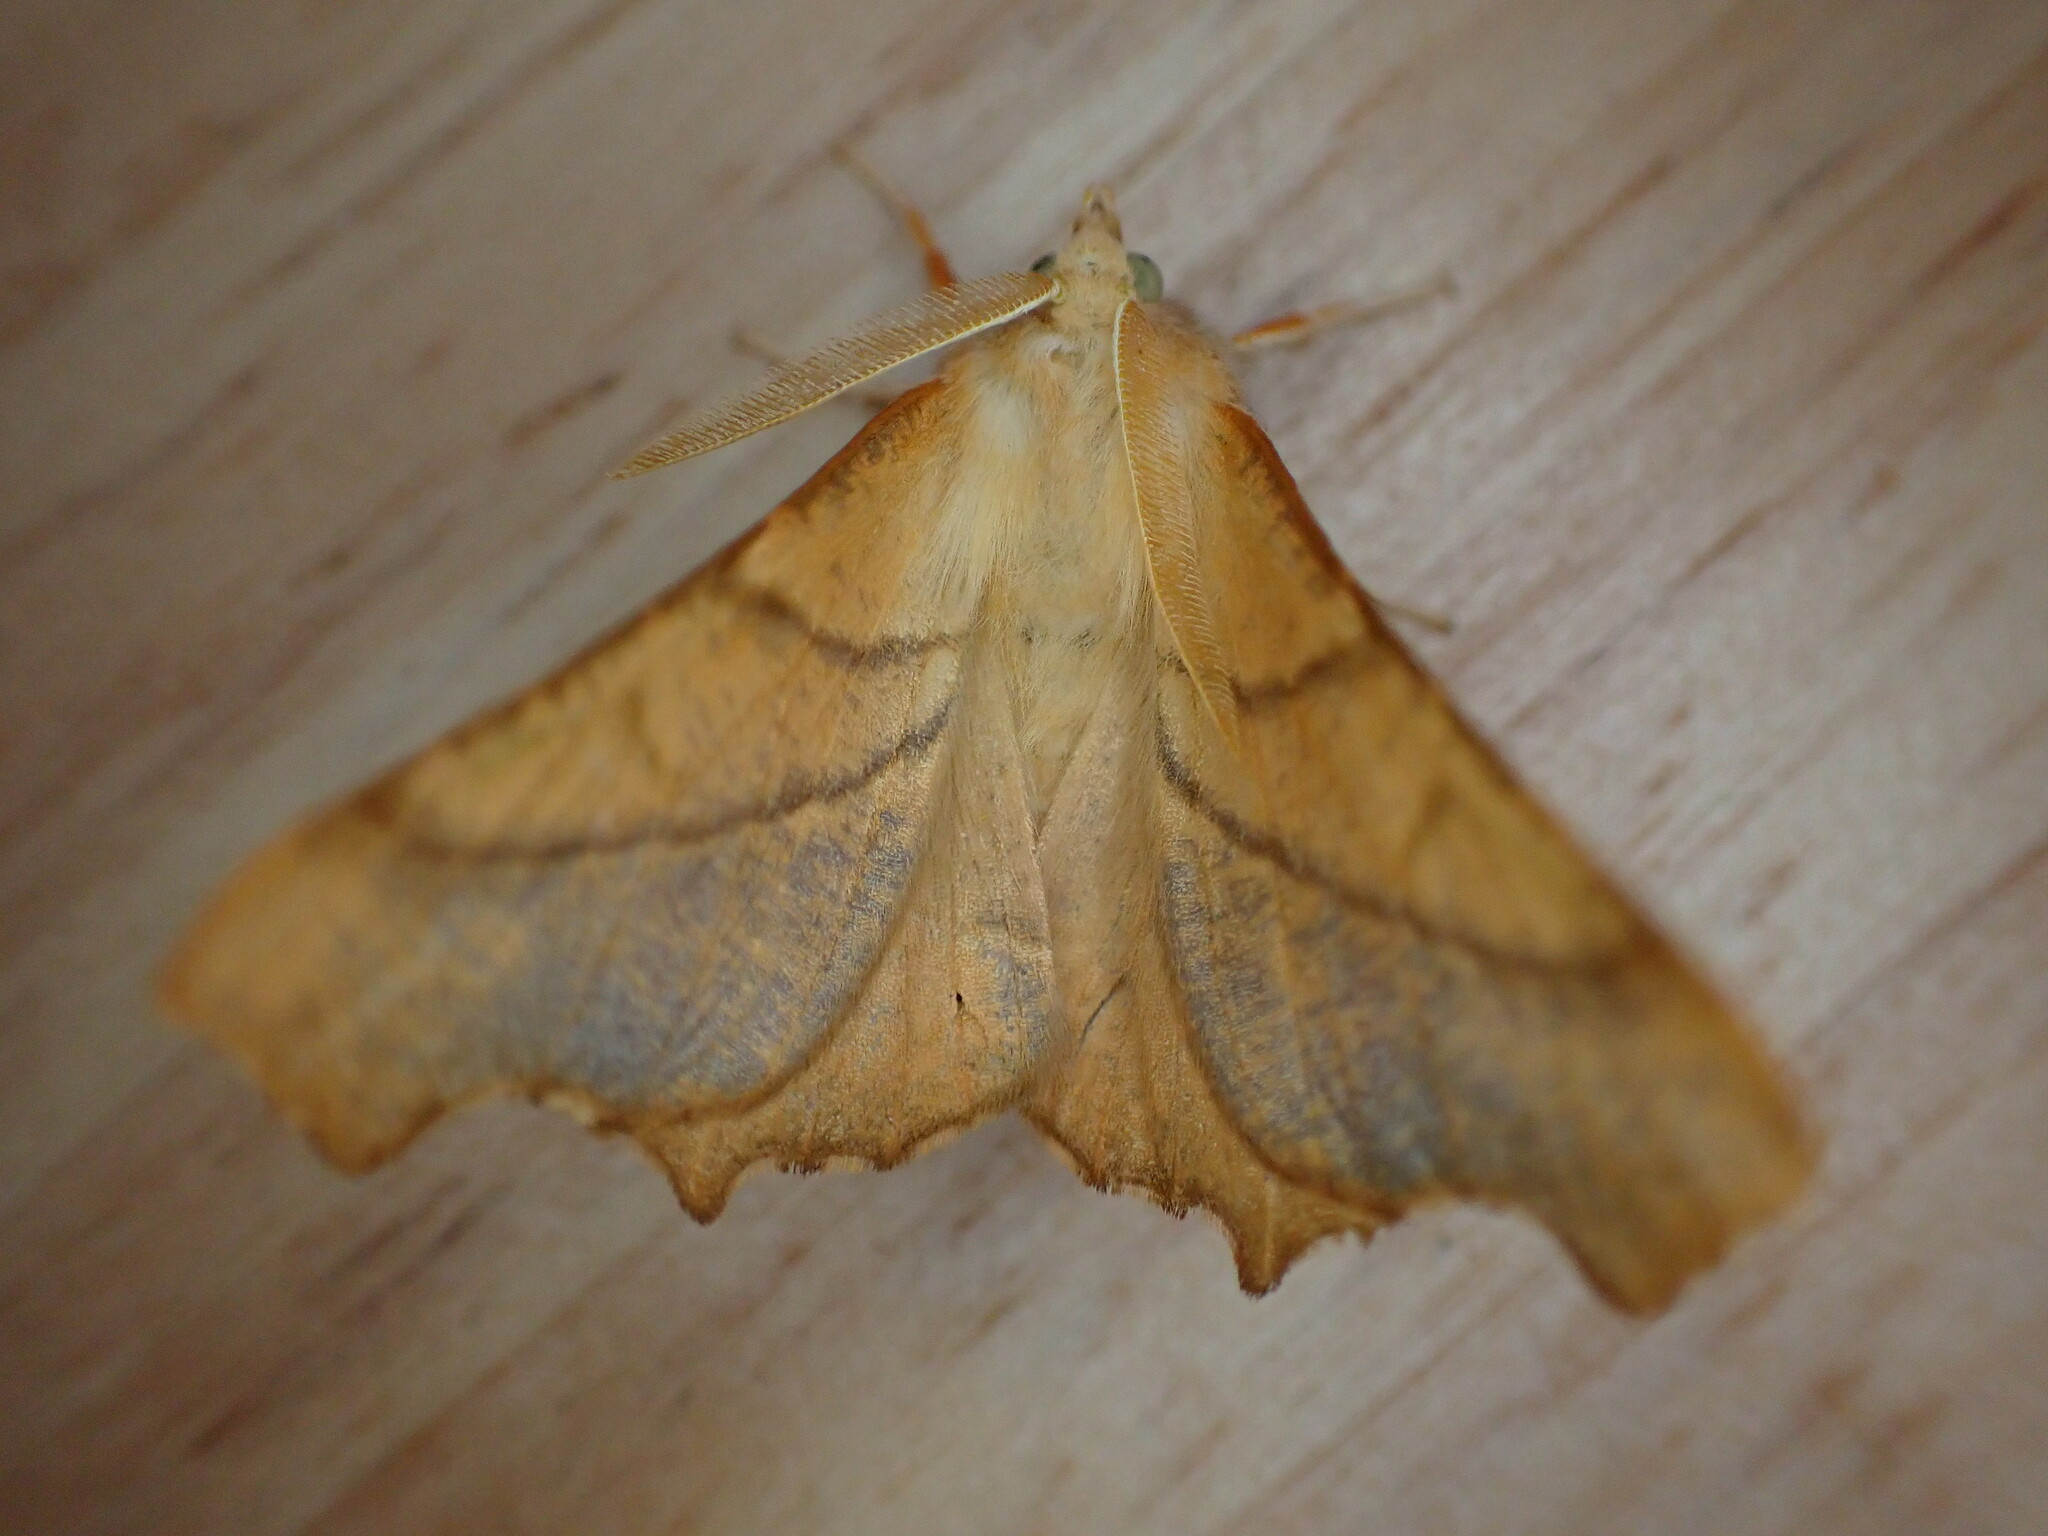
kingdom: Animalia
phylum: Arthropoda
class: Insecta
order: Lepidoptera
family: Geometridae
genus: Ennomos
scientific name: Ennomos fuscantaria
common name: Dusky thorn
